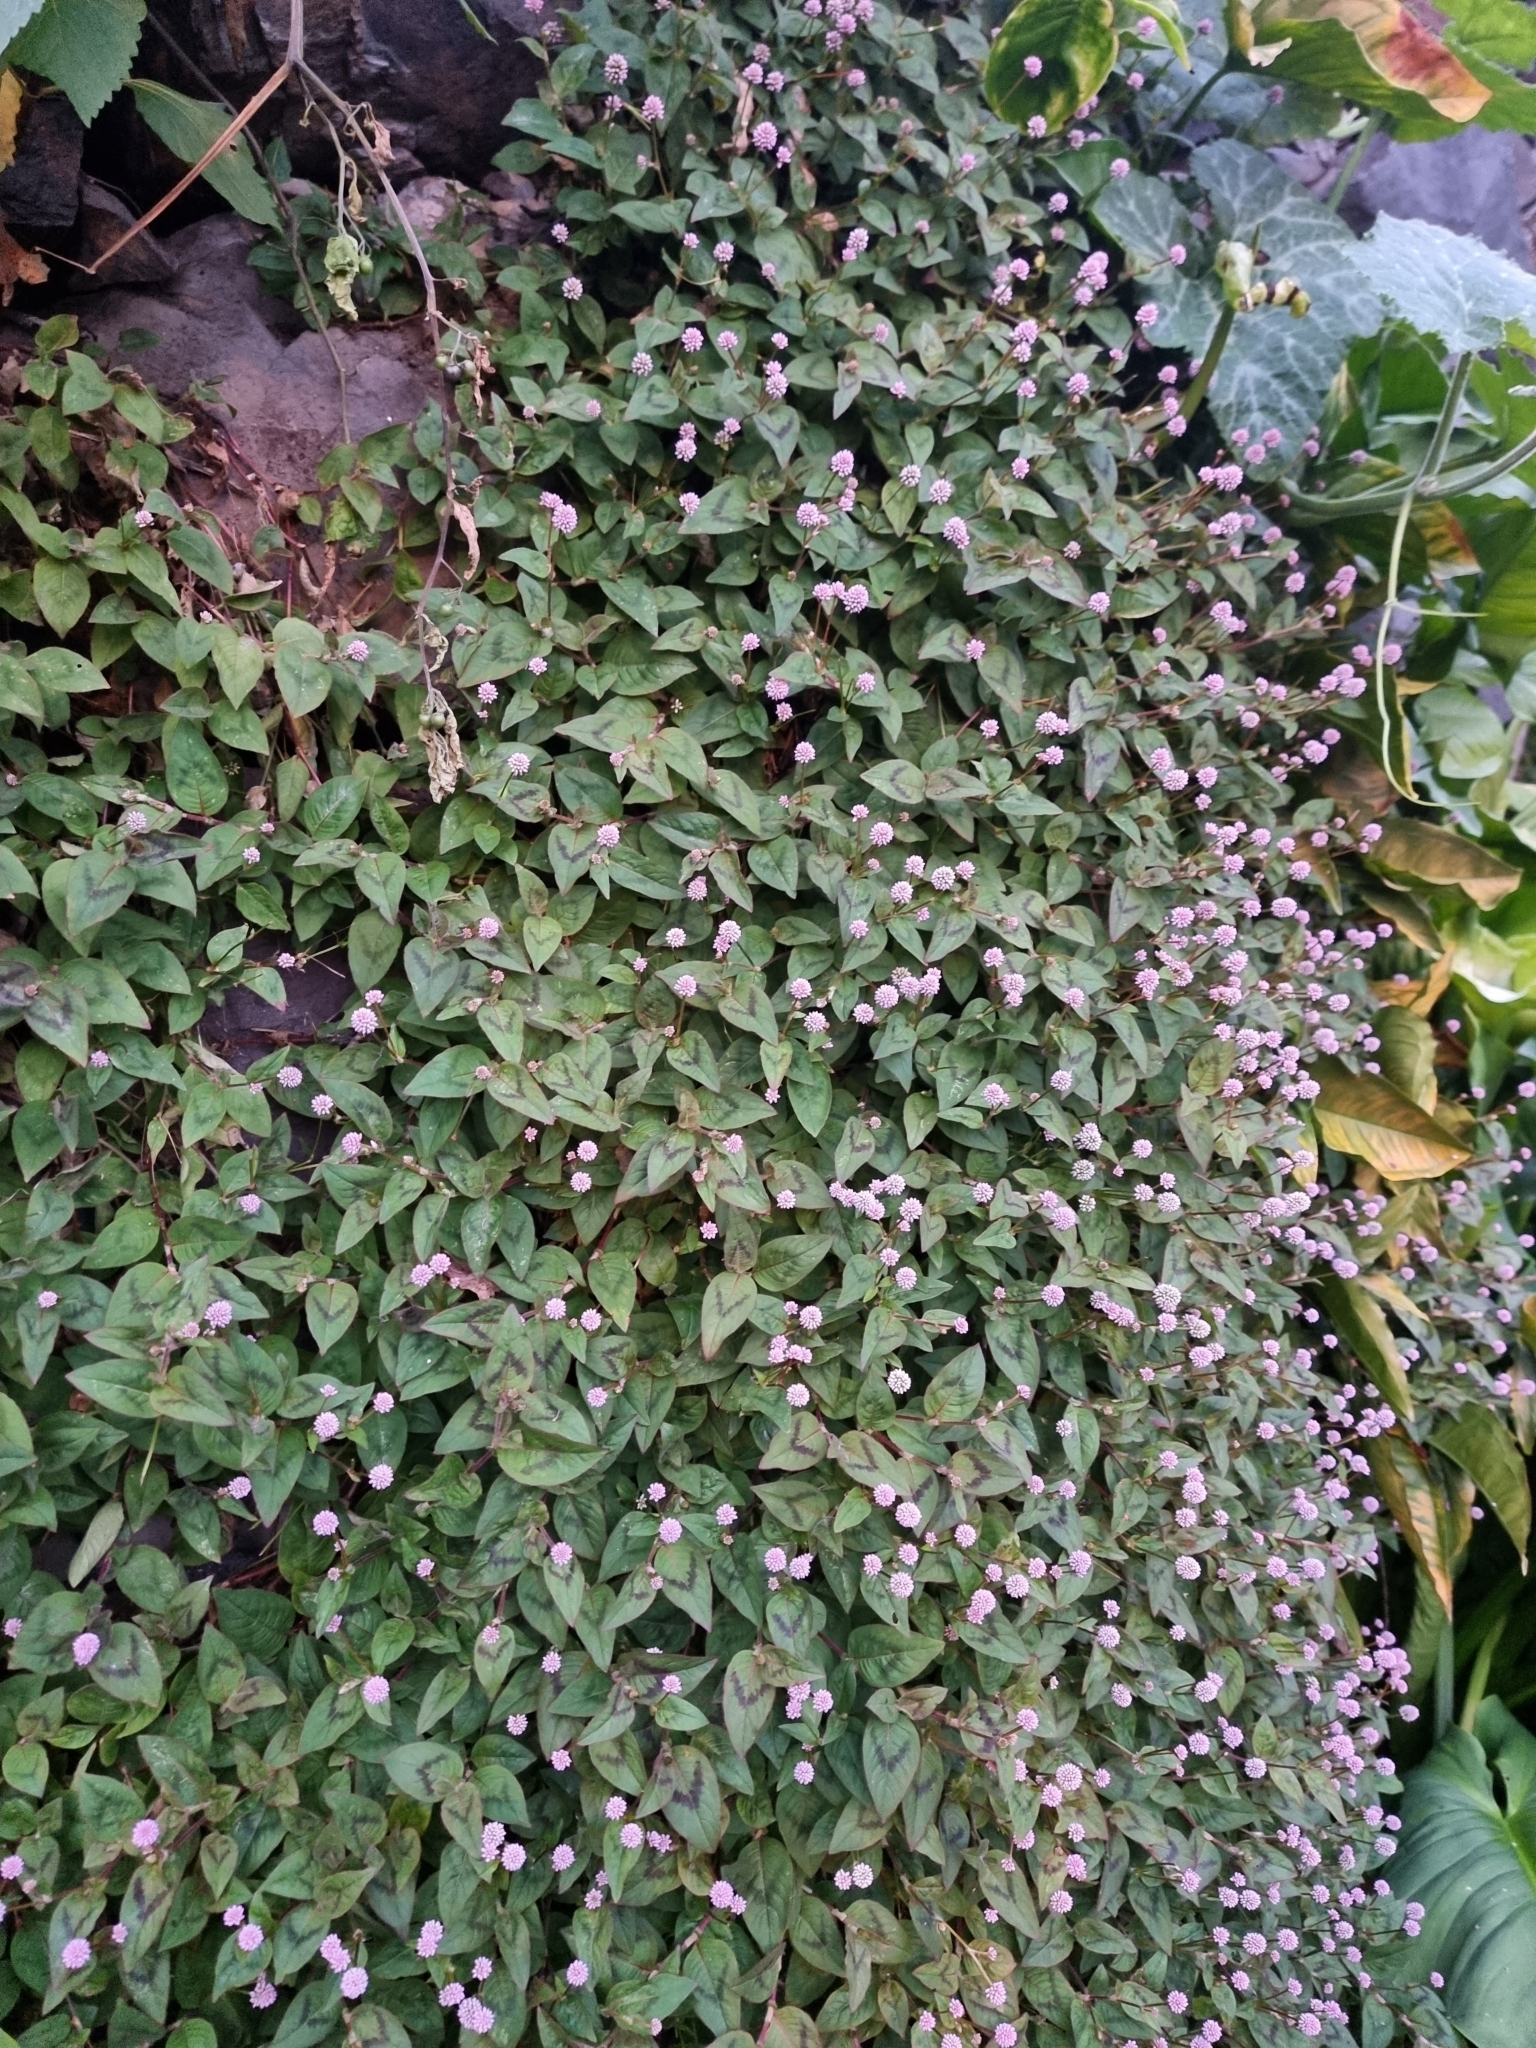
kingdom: Plantae
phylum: Tracheophyta
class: Magnoliopsida
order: Caryophyllales
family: Polygonaceae
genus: Persicaria
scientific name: Persicaria capitata
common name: Pinkhead smartweed
